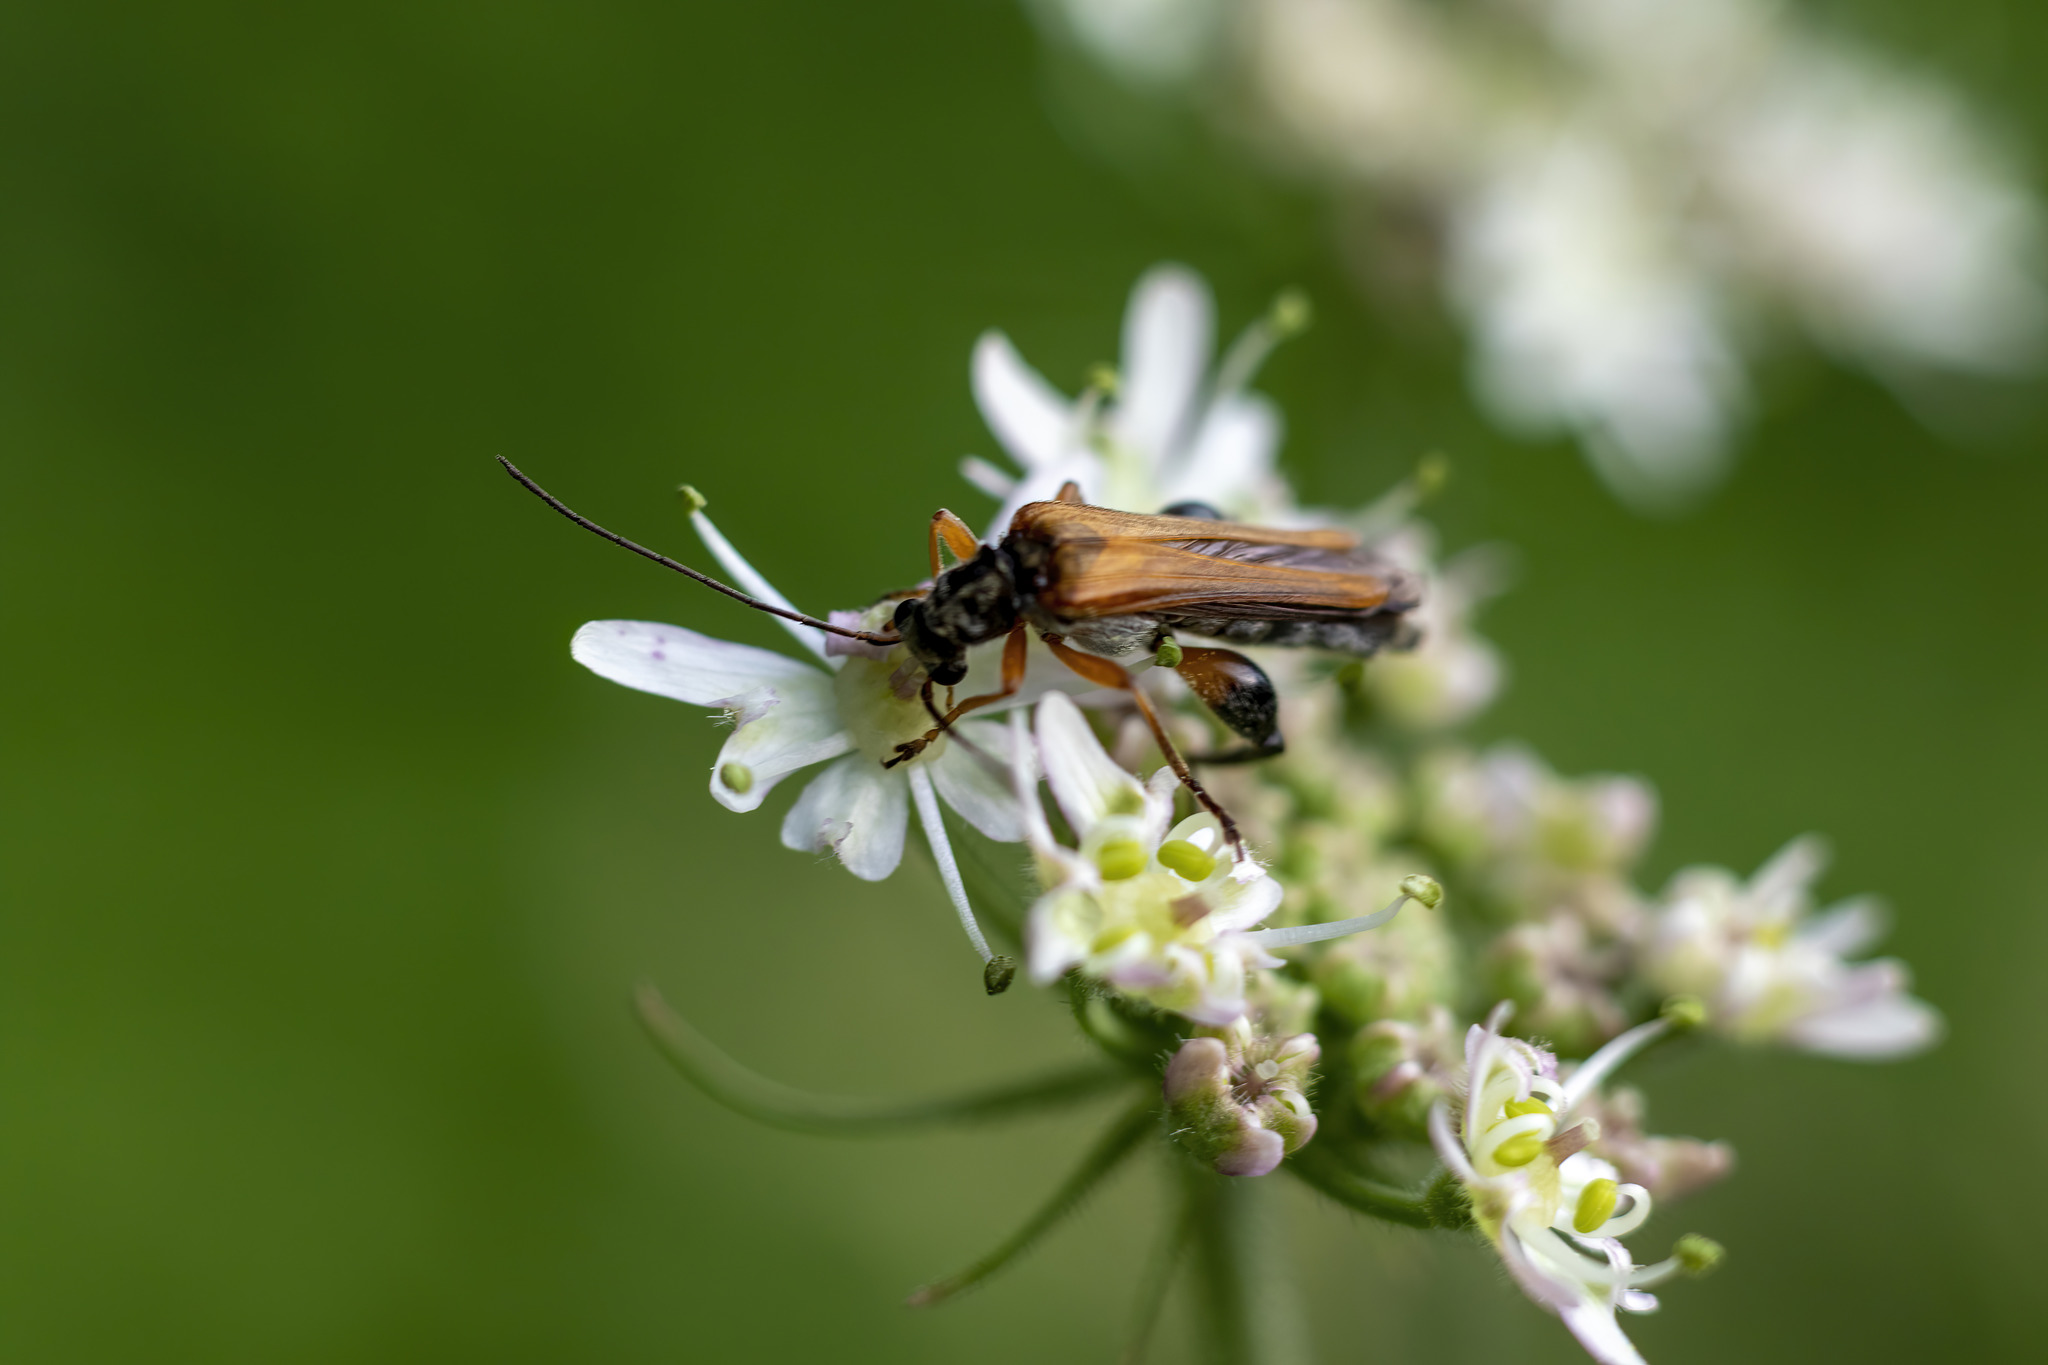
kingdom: Animalia
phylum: Arthropoda
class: Insecta
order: Coleoptera
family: Oedemeridae
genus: Oedemera
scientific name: Oedemera podagrariae
